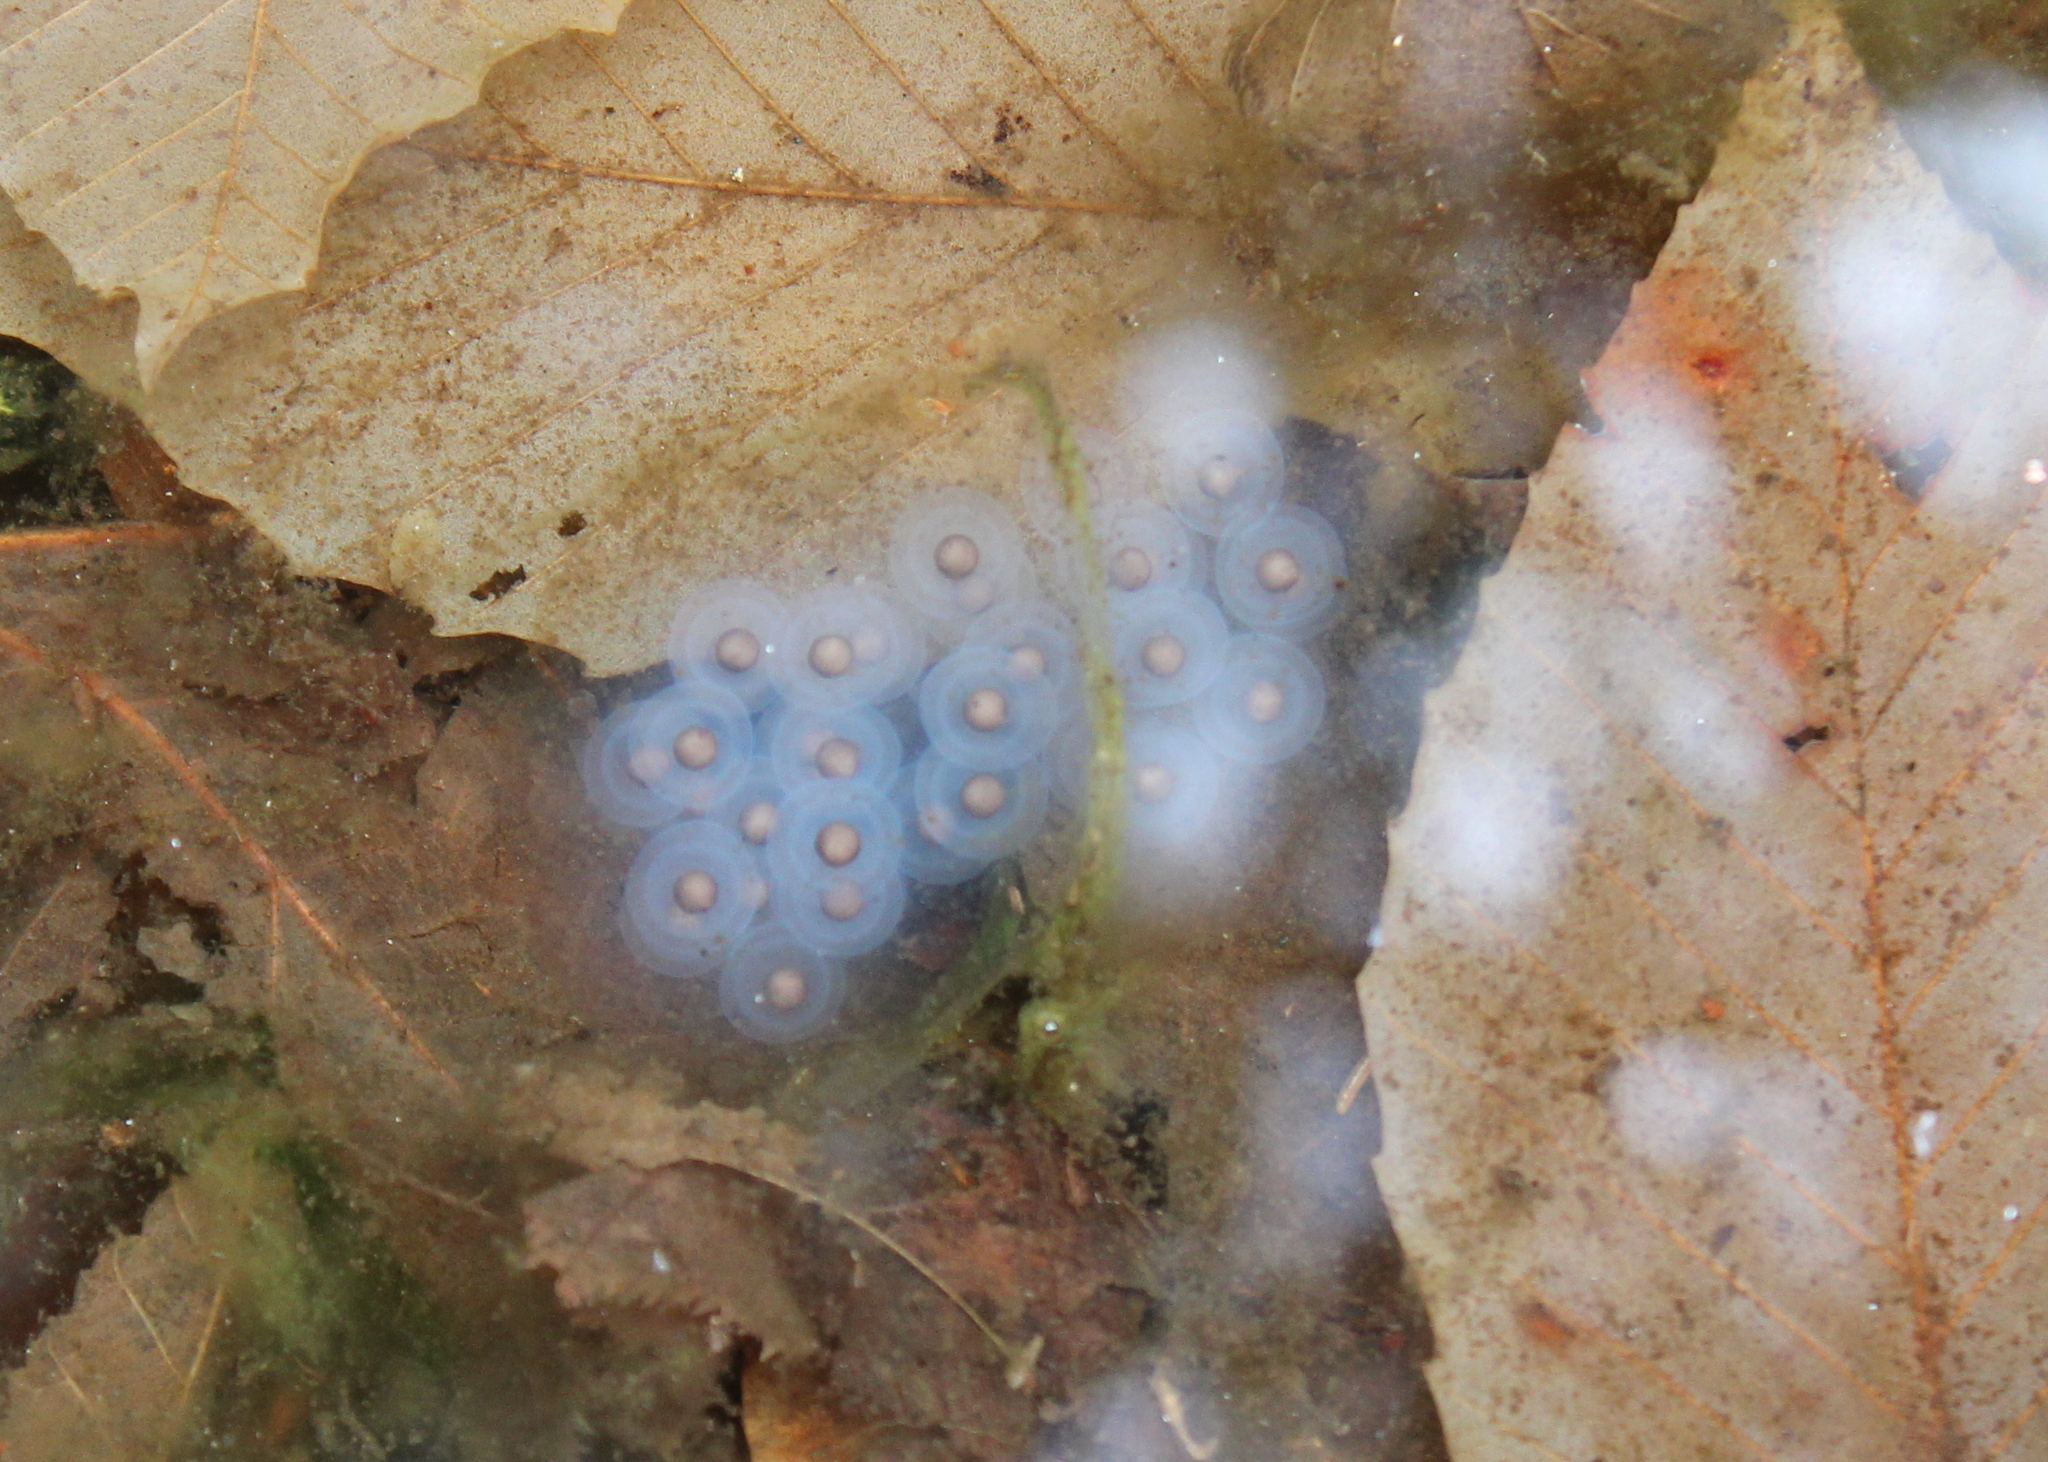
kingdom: Animalia
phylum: Chordata
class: Amphibia
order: Caudata
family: Ambystomatidae
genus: Ambystoma
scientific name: Ambystoma maculatum
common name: Spotted salamander
